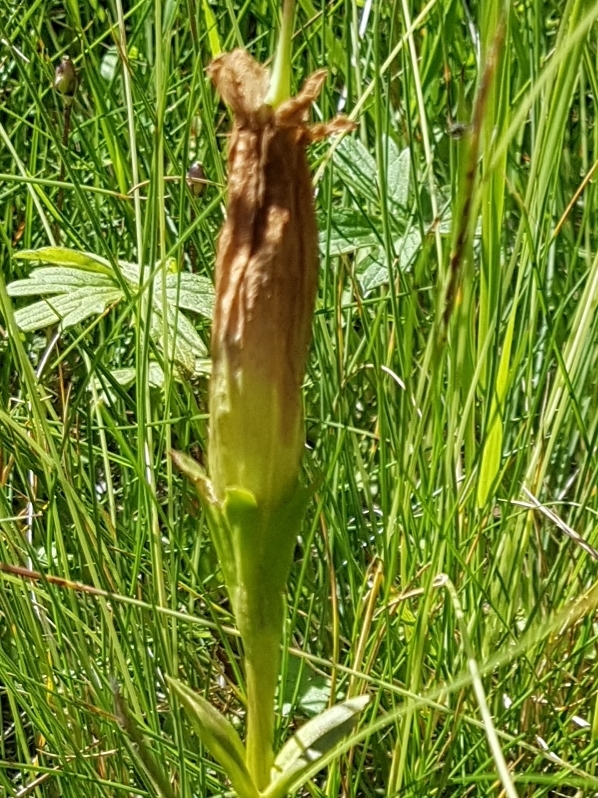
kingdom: Plantae
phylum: Tracheophyta
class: Magnoliopsida
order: Gentianales
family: Gentianaceae
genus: Gentiana
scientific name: Gentiana acaulis
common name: Trumpet gentian
